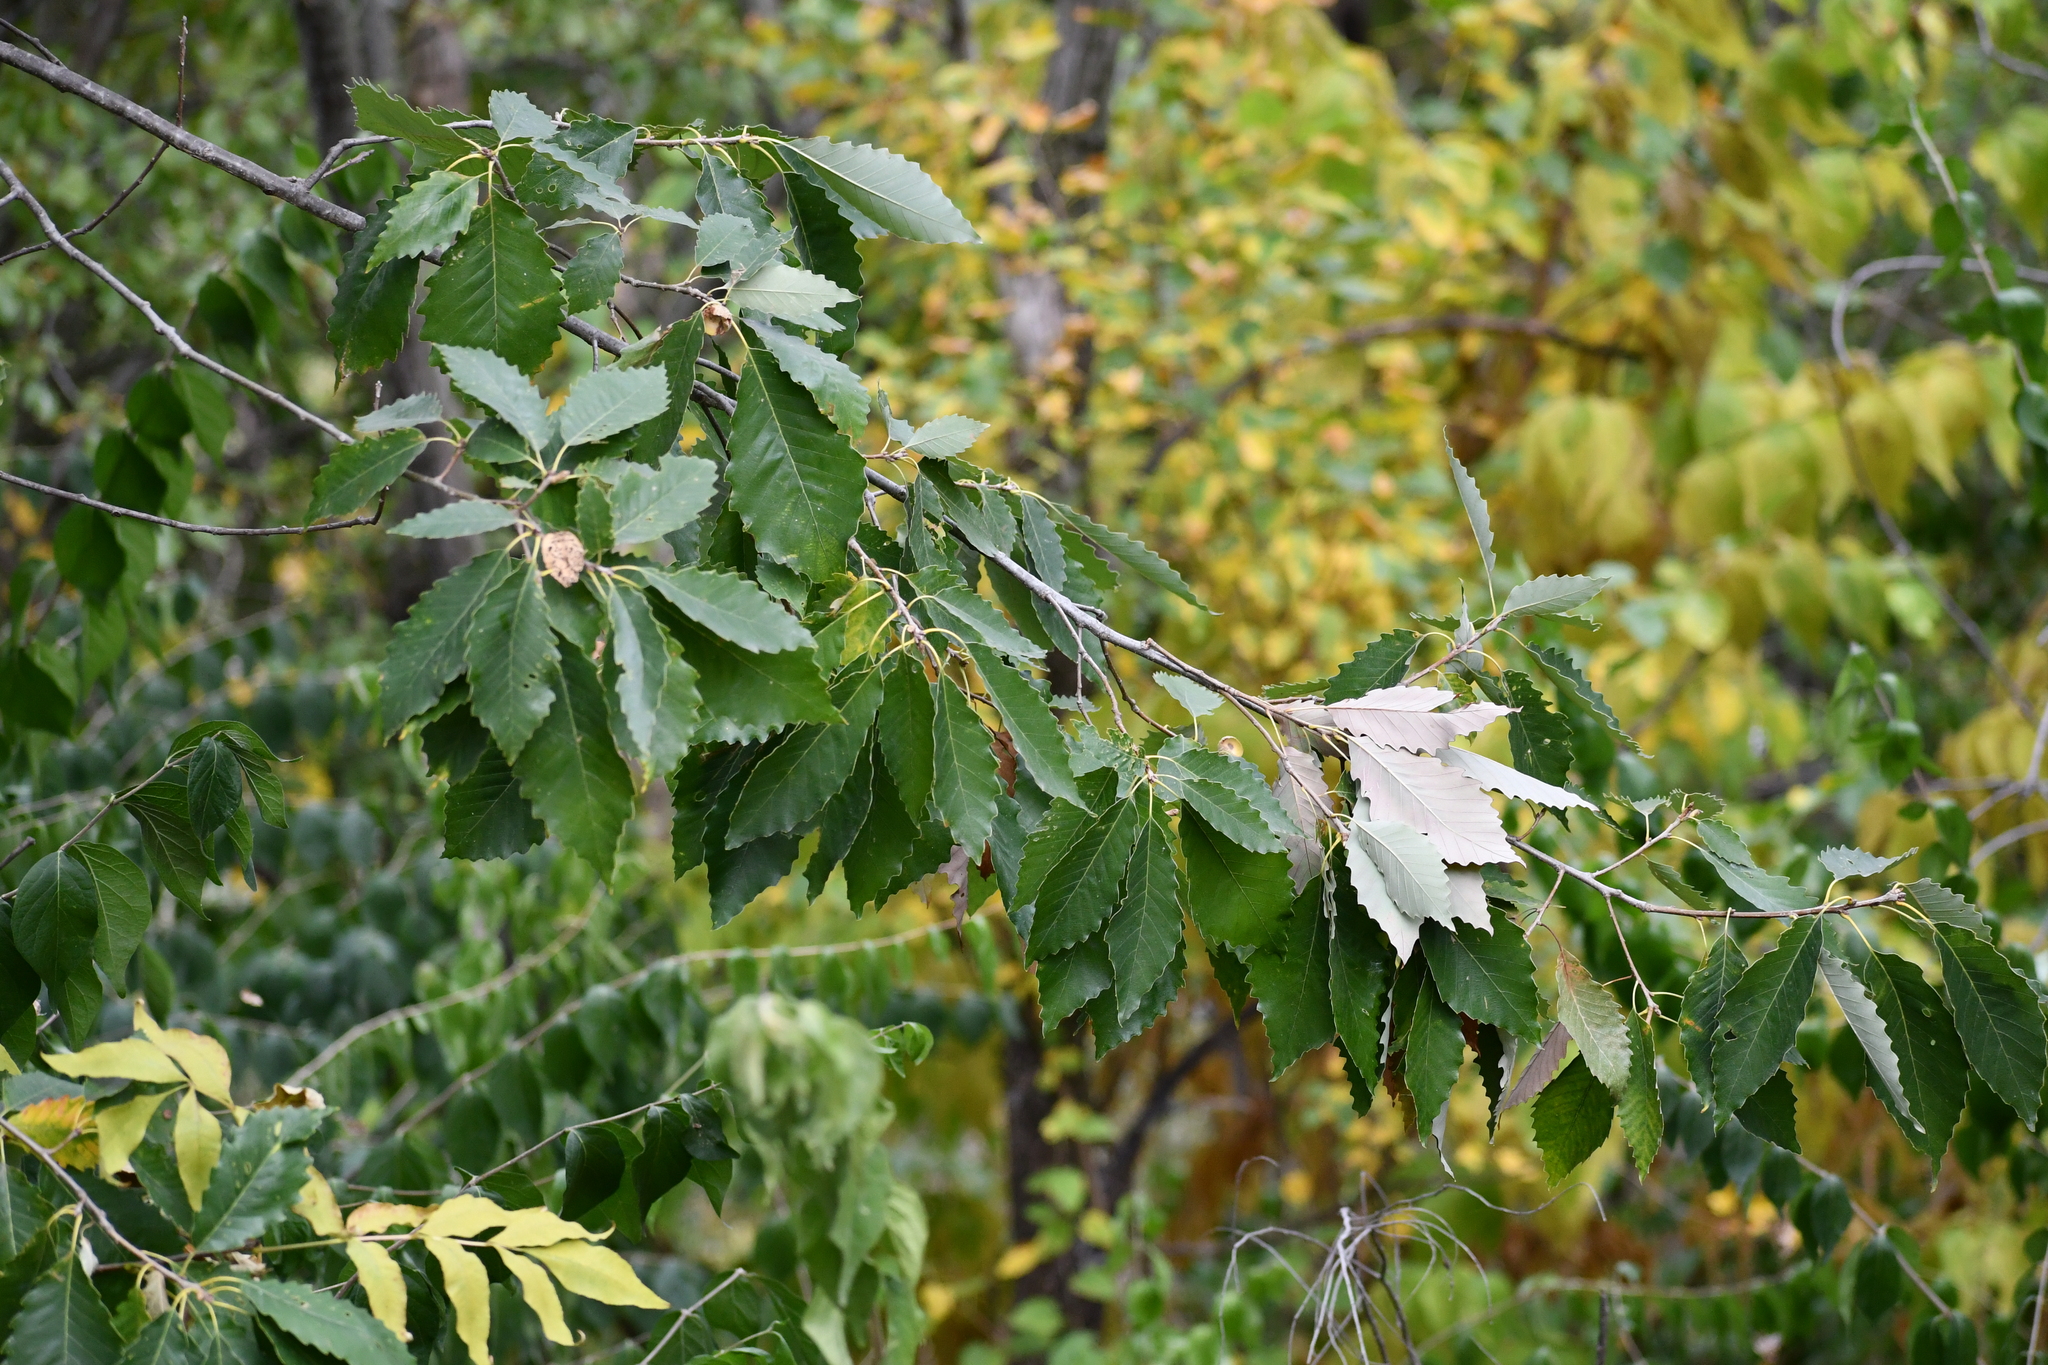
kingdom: Plantae
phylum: Tracheophyta
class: Magnoliopsida
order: Fagales
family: Fagaceae
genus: Quercus
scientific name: Quercus muehlenbergii
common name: Chinkapin oak
